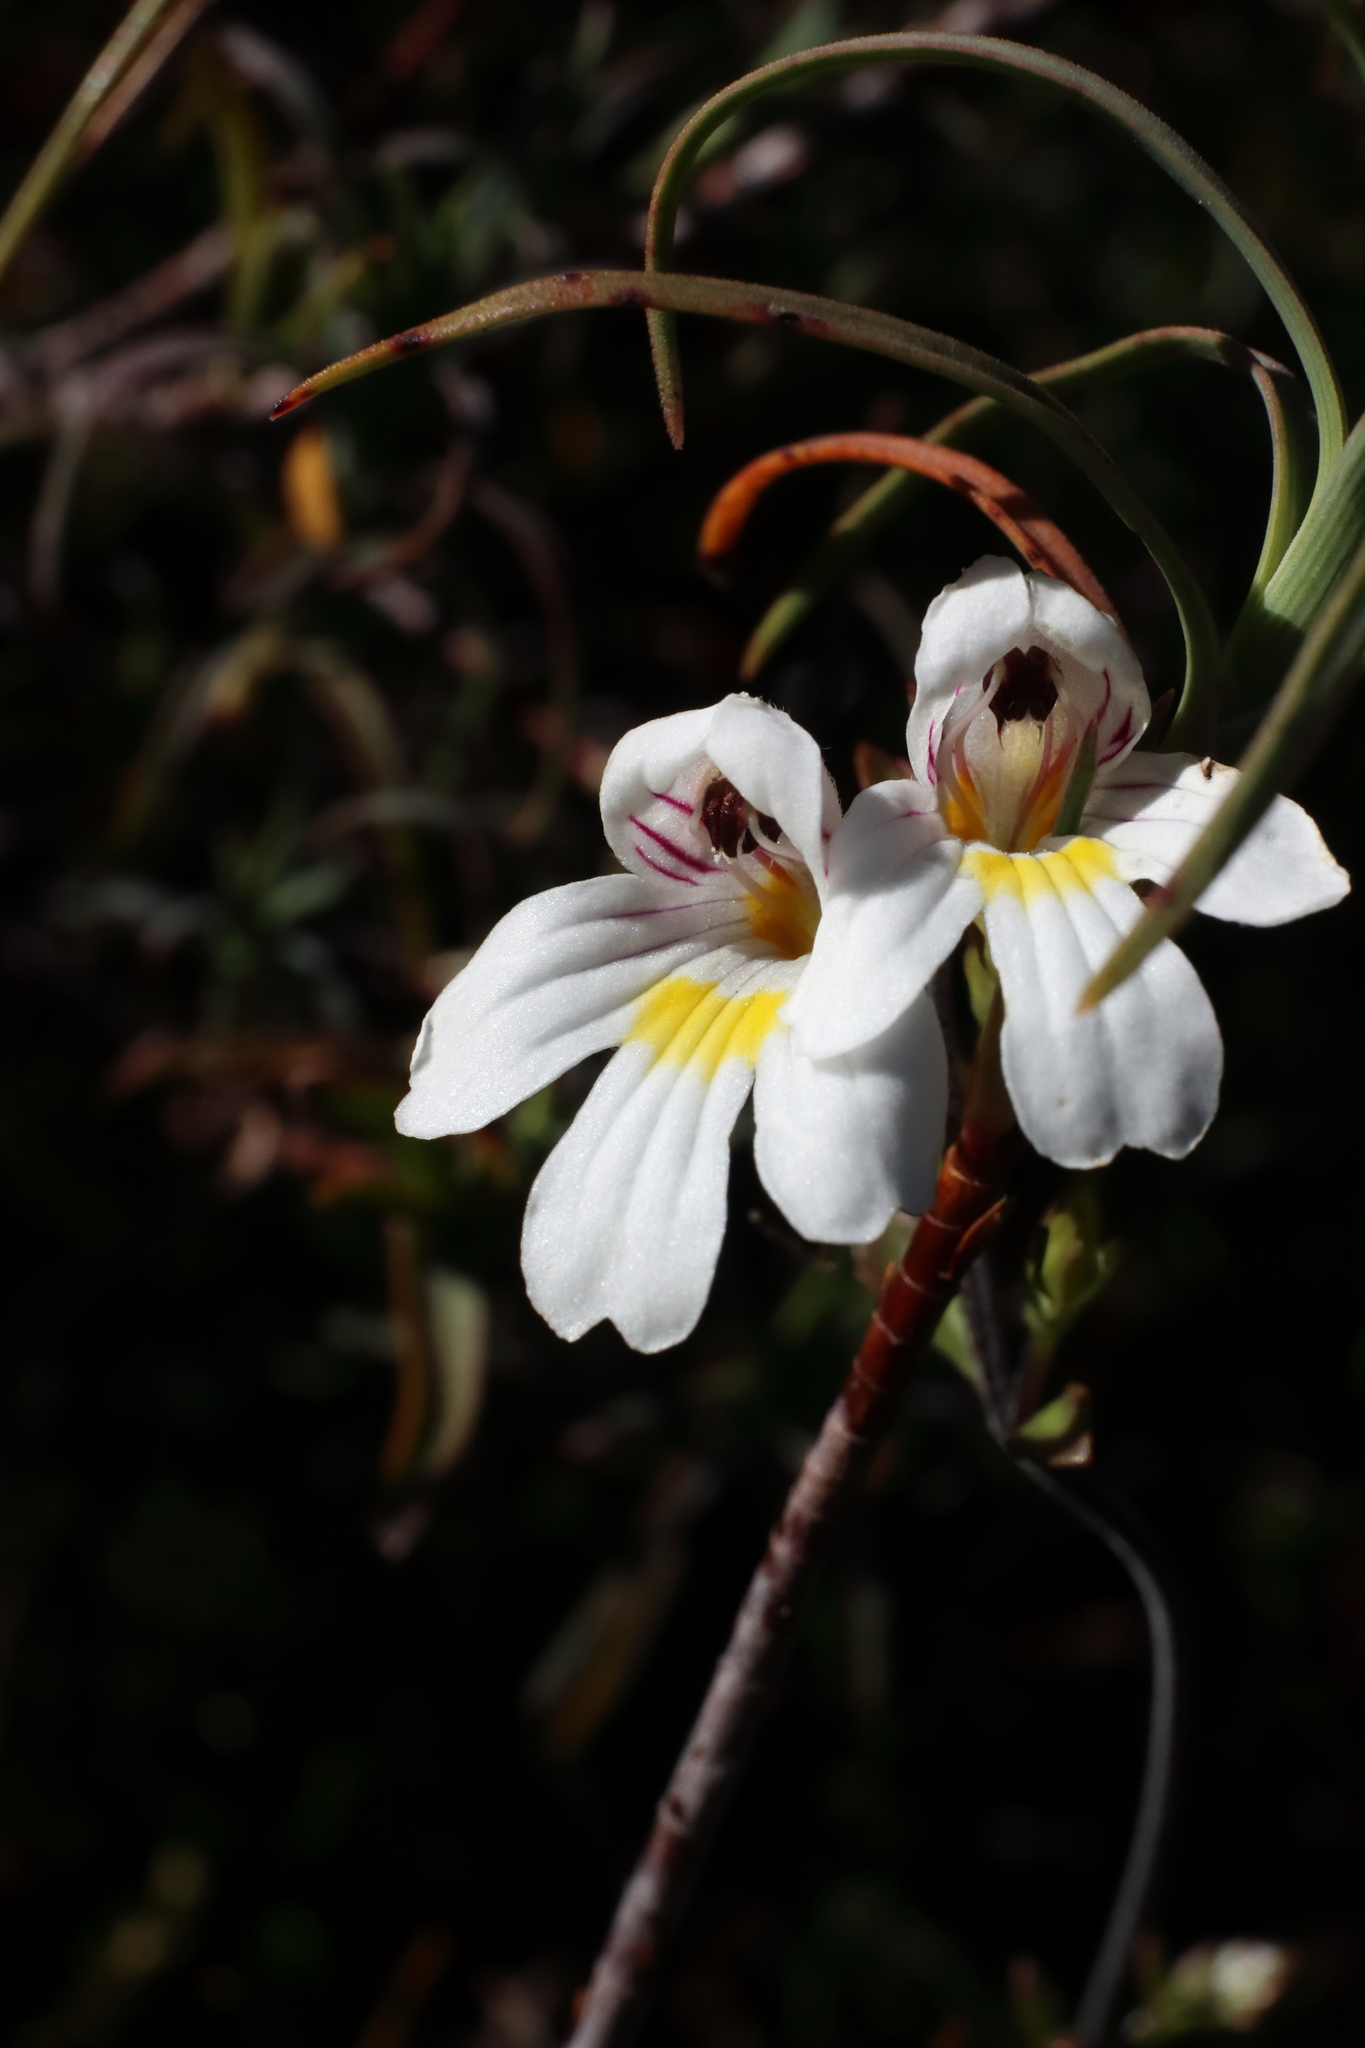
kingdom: Plantae
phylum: Tracheophyta
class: Magnoliopsida
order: Lamiales
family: Orobanchaceae
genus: Euphrasia
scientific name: Euphrasia cuneata
